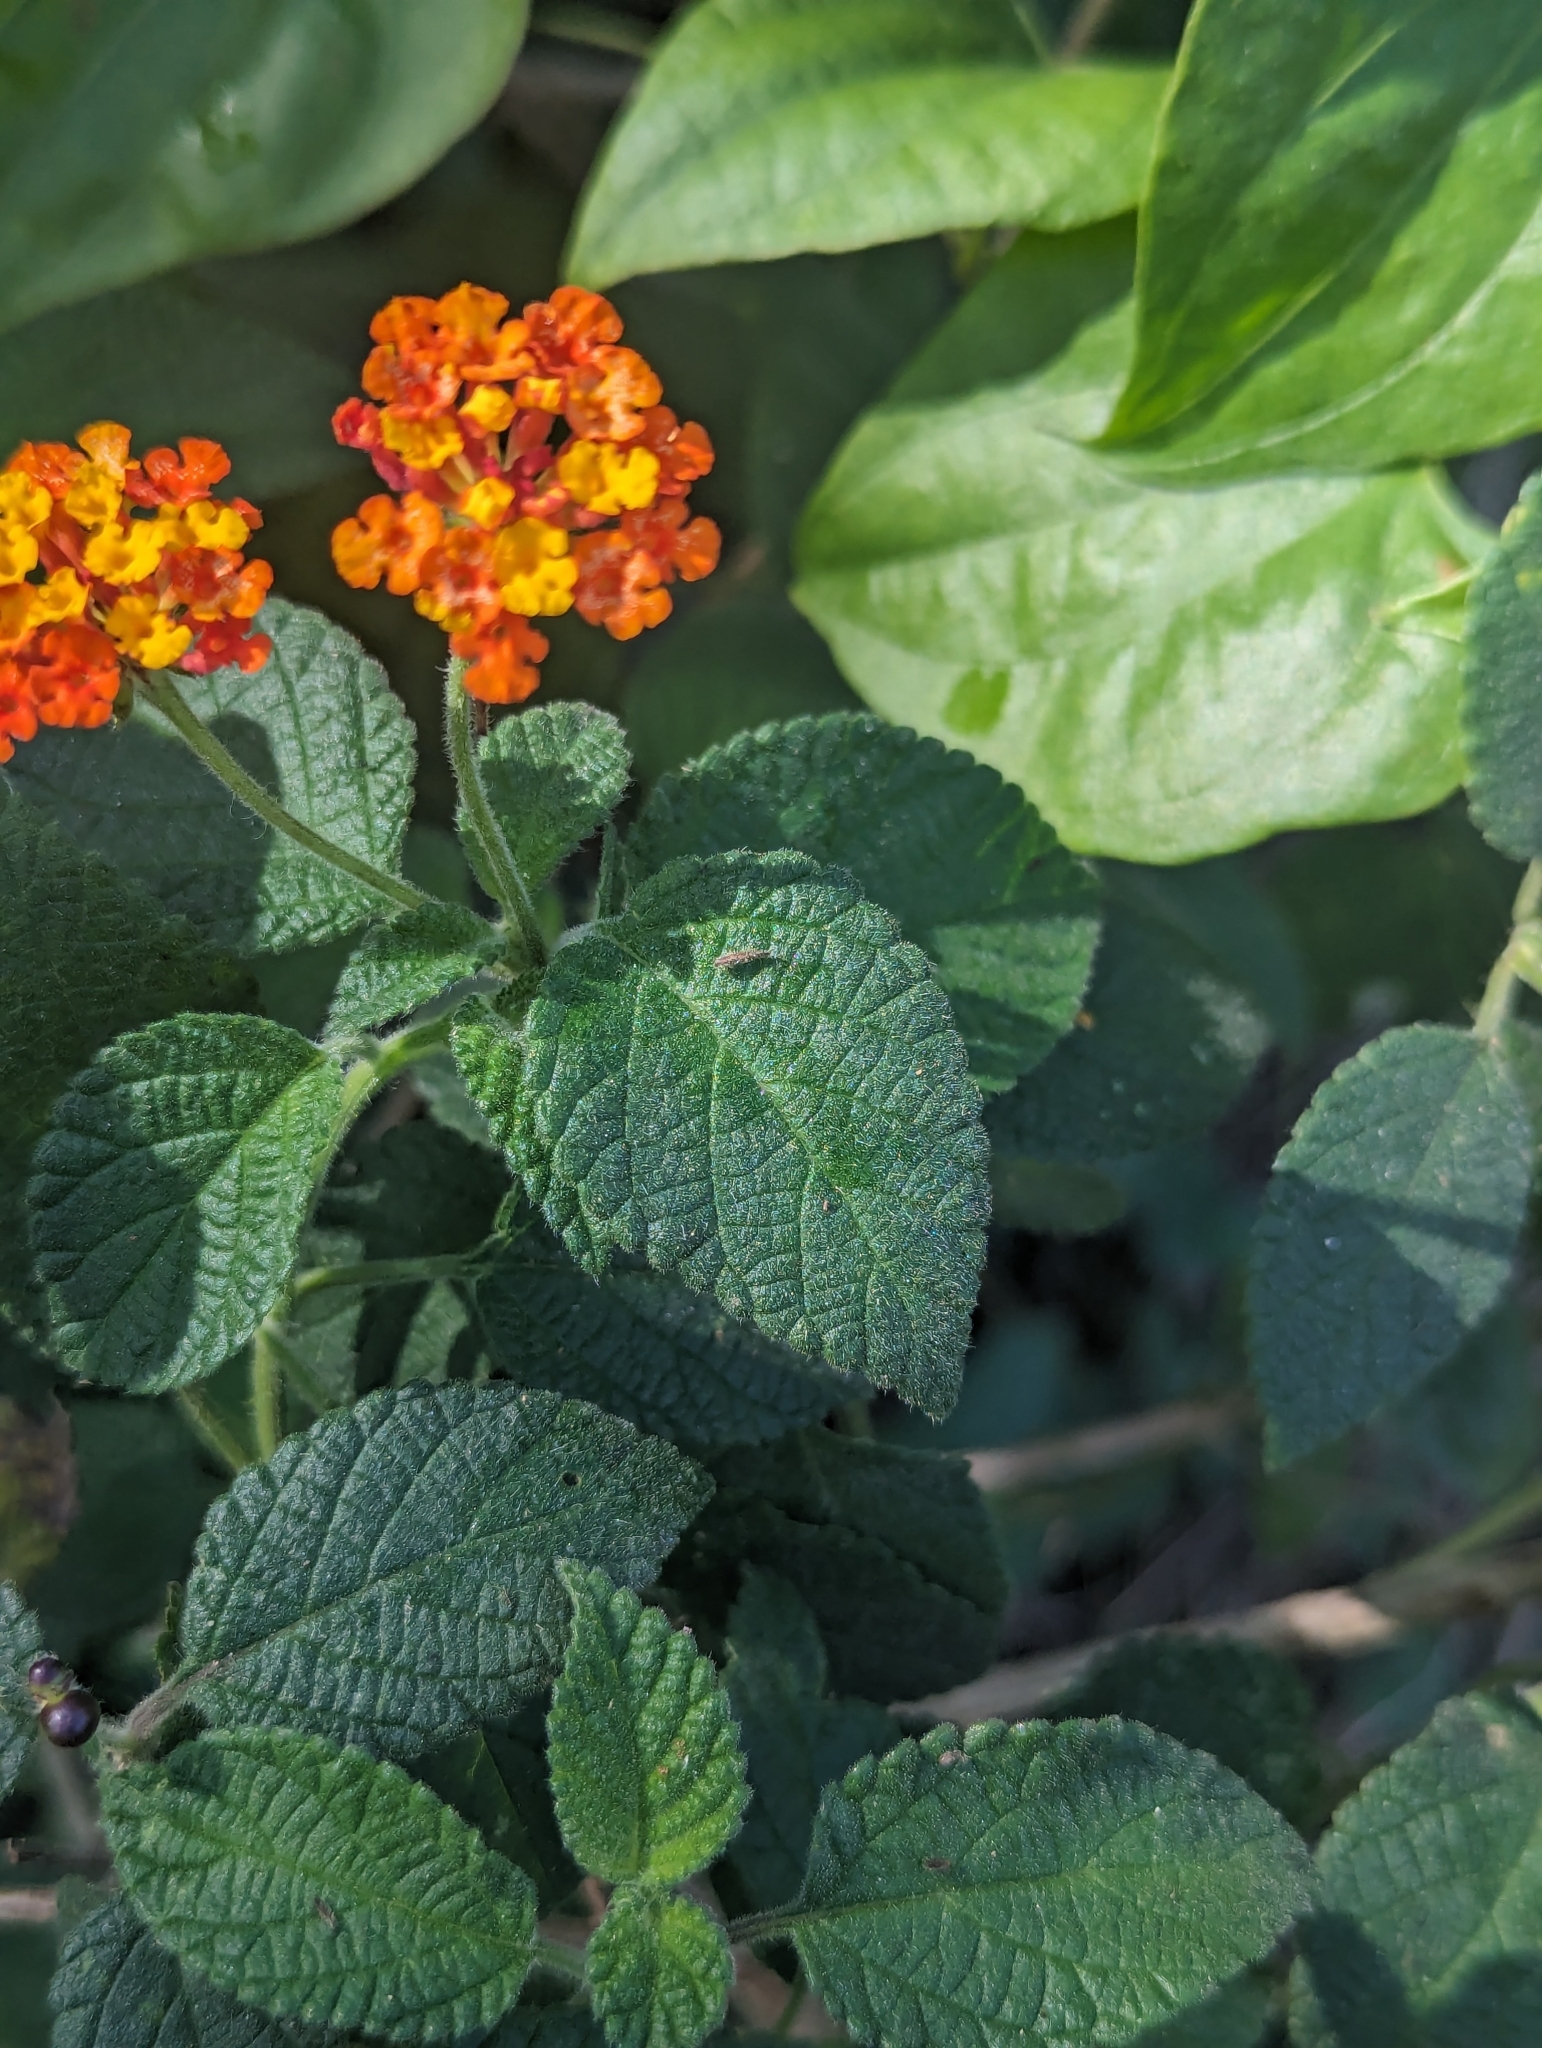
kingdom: Plantae
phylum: Tracheophyta
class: Magnoliopsida
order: Lamiales
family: Verbenaceae
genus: Lantana
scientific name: Lantana horrida
